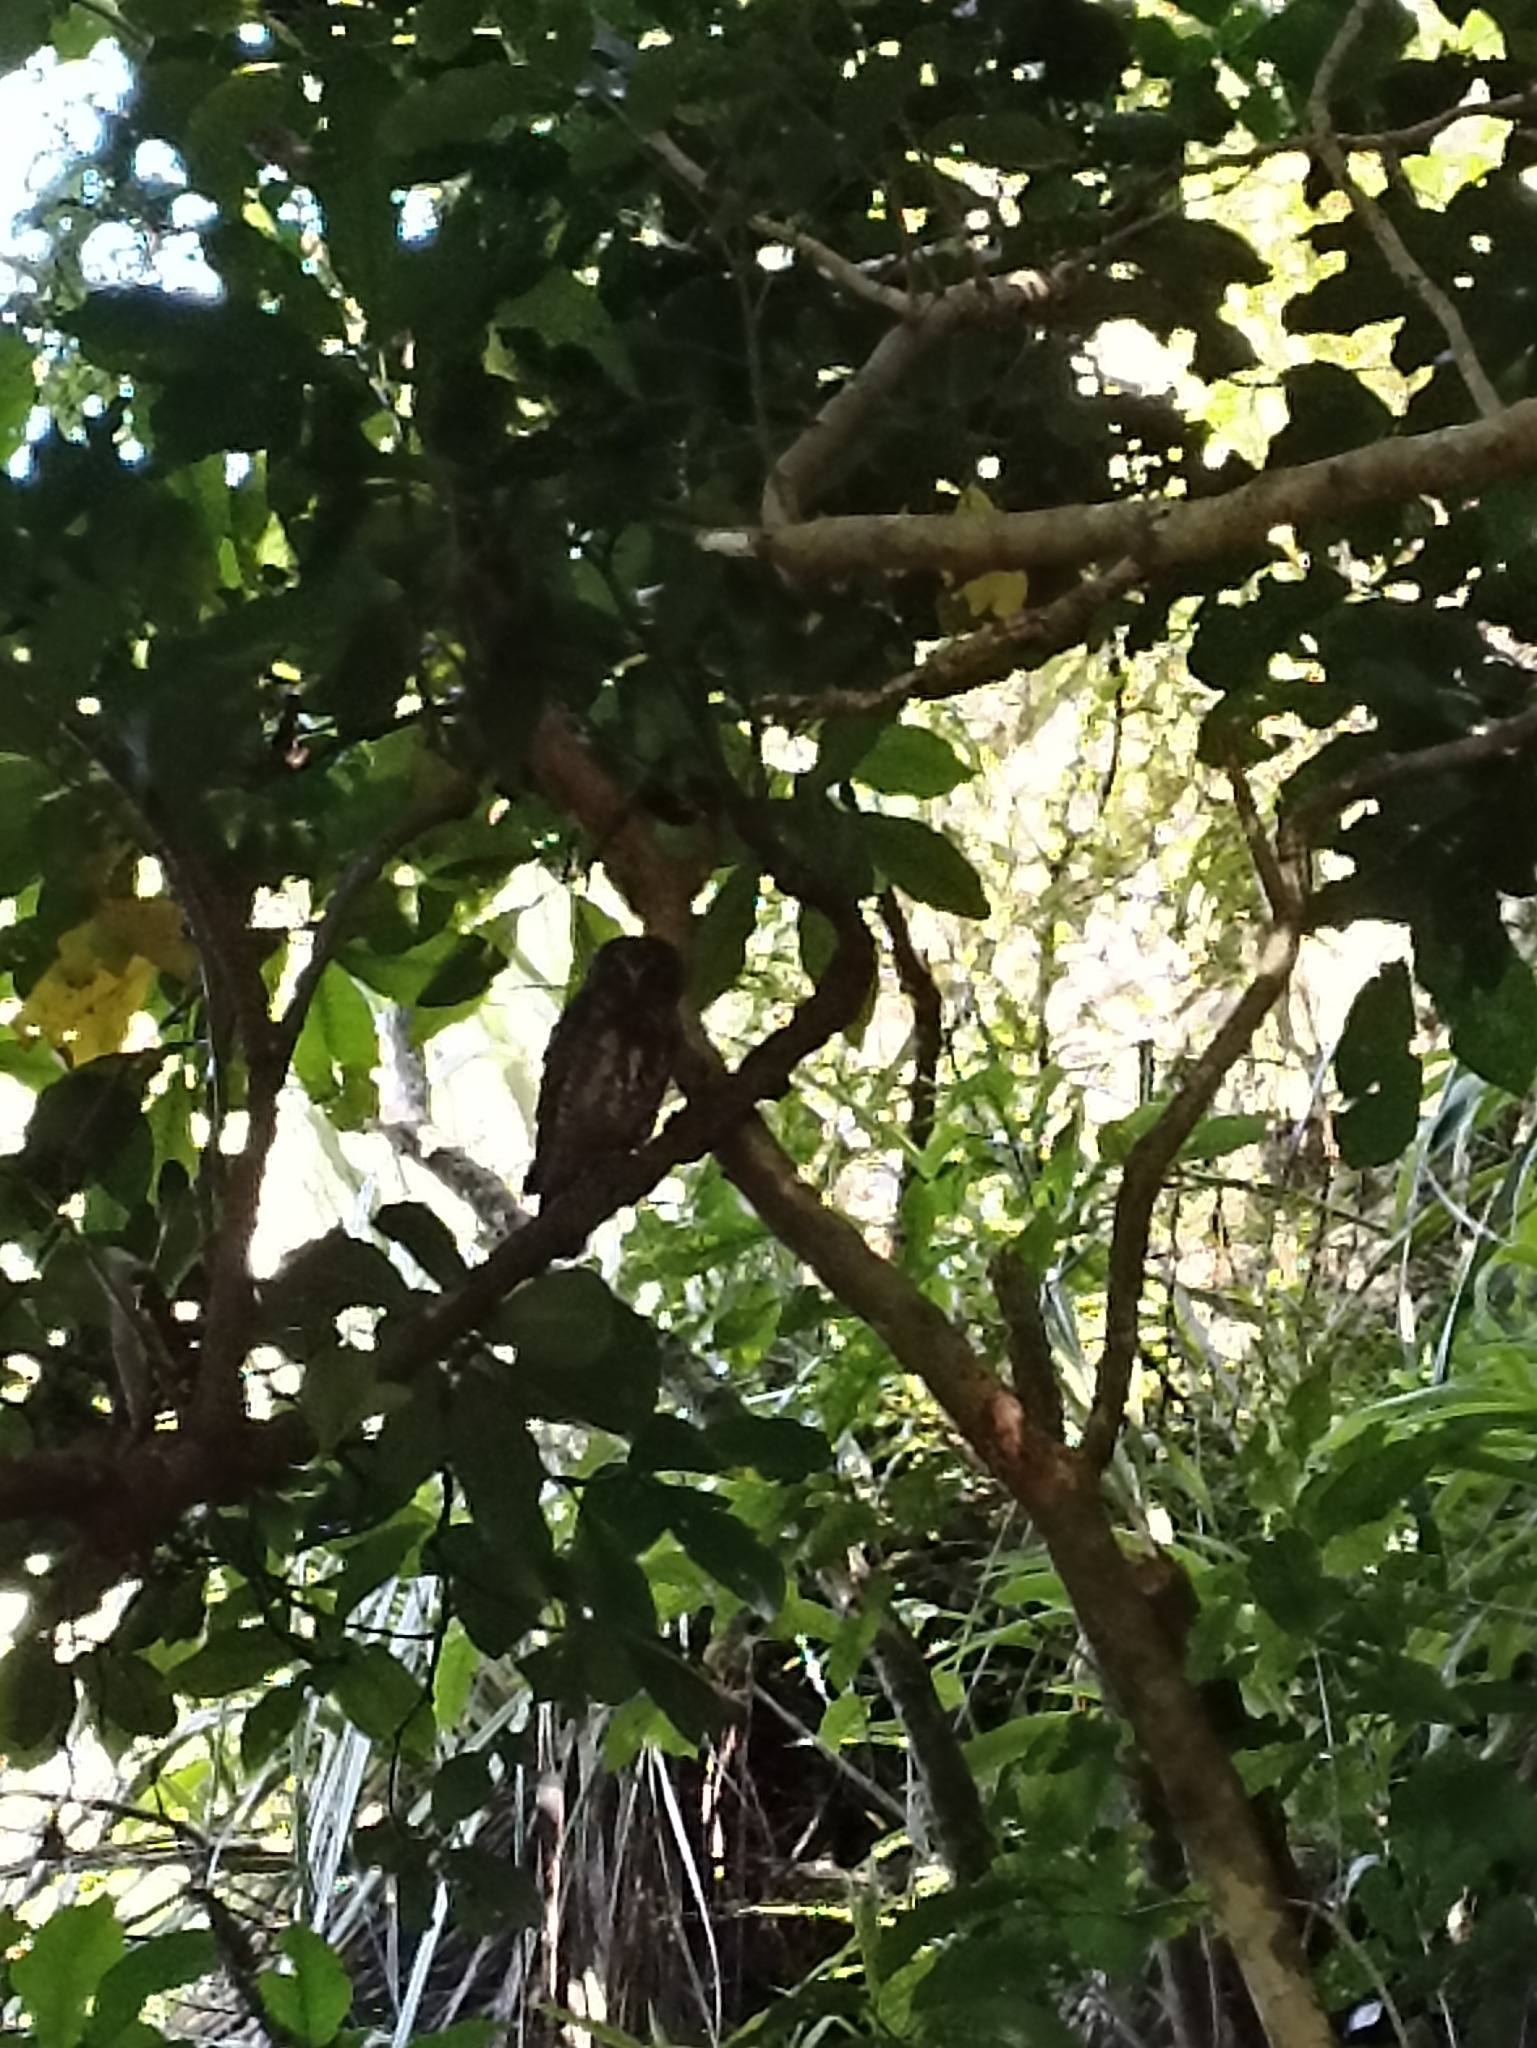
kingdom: Animalia
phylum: Chordata
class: Aves
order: Strigiformes
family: Strigidae
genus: Ninox
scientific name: Ninox novaeseelandiae
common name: Morepork
